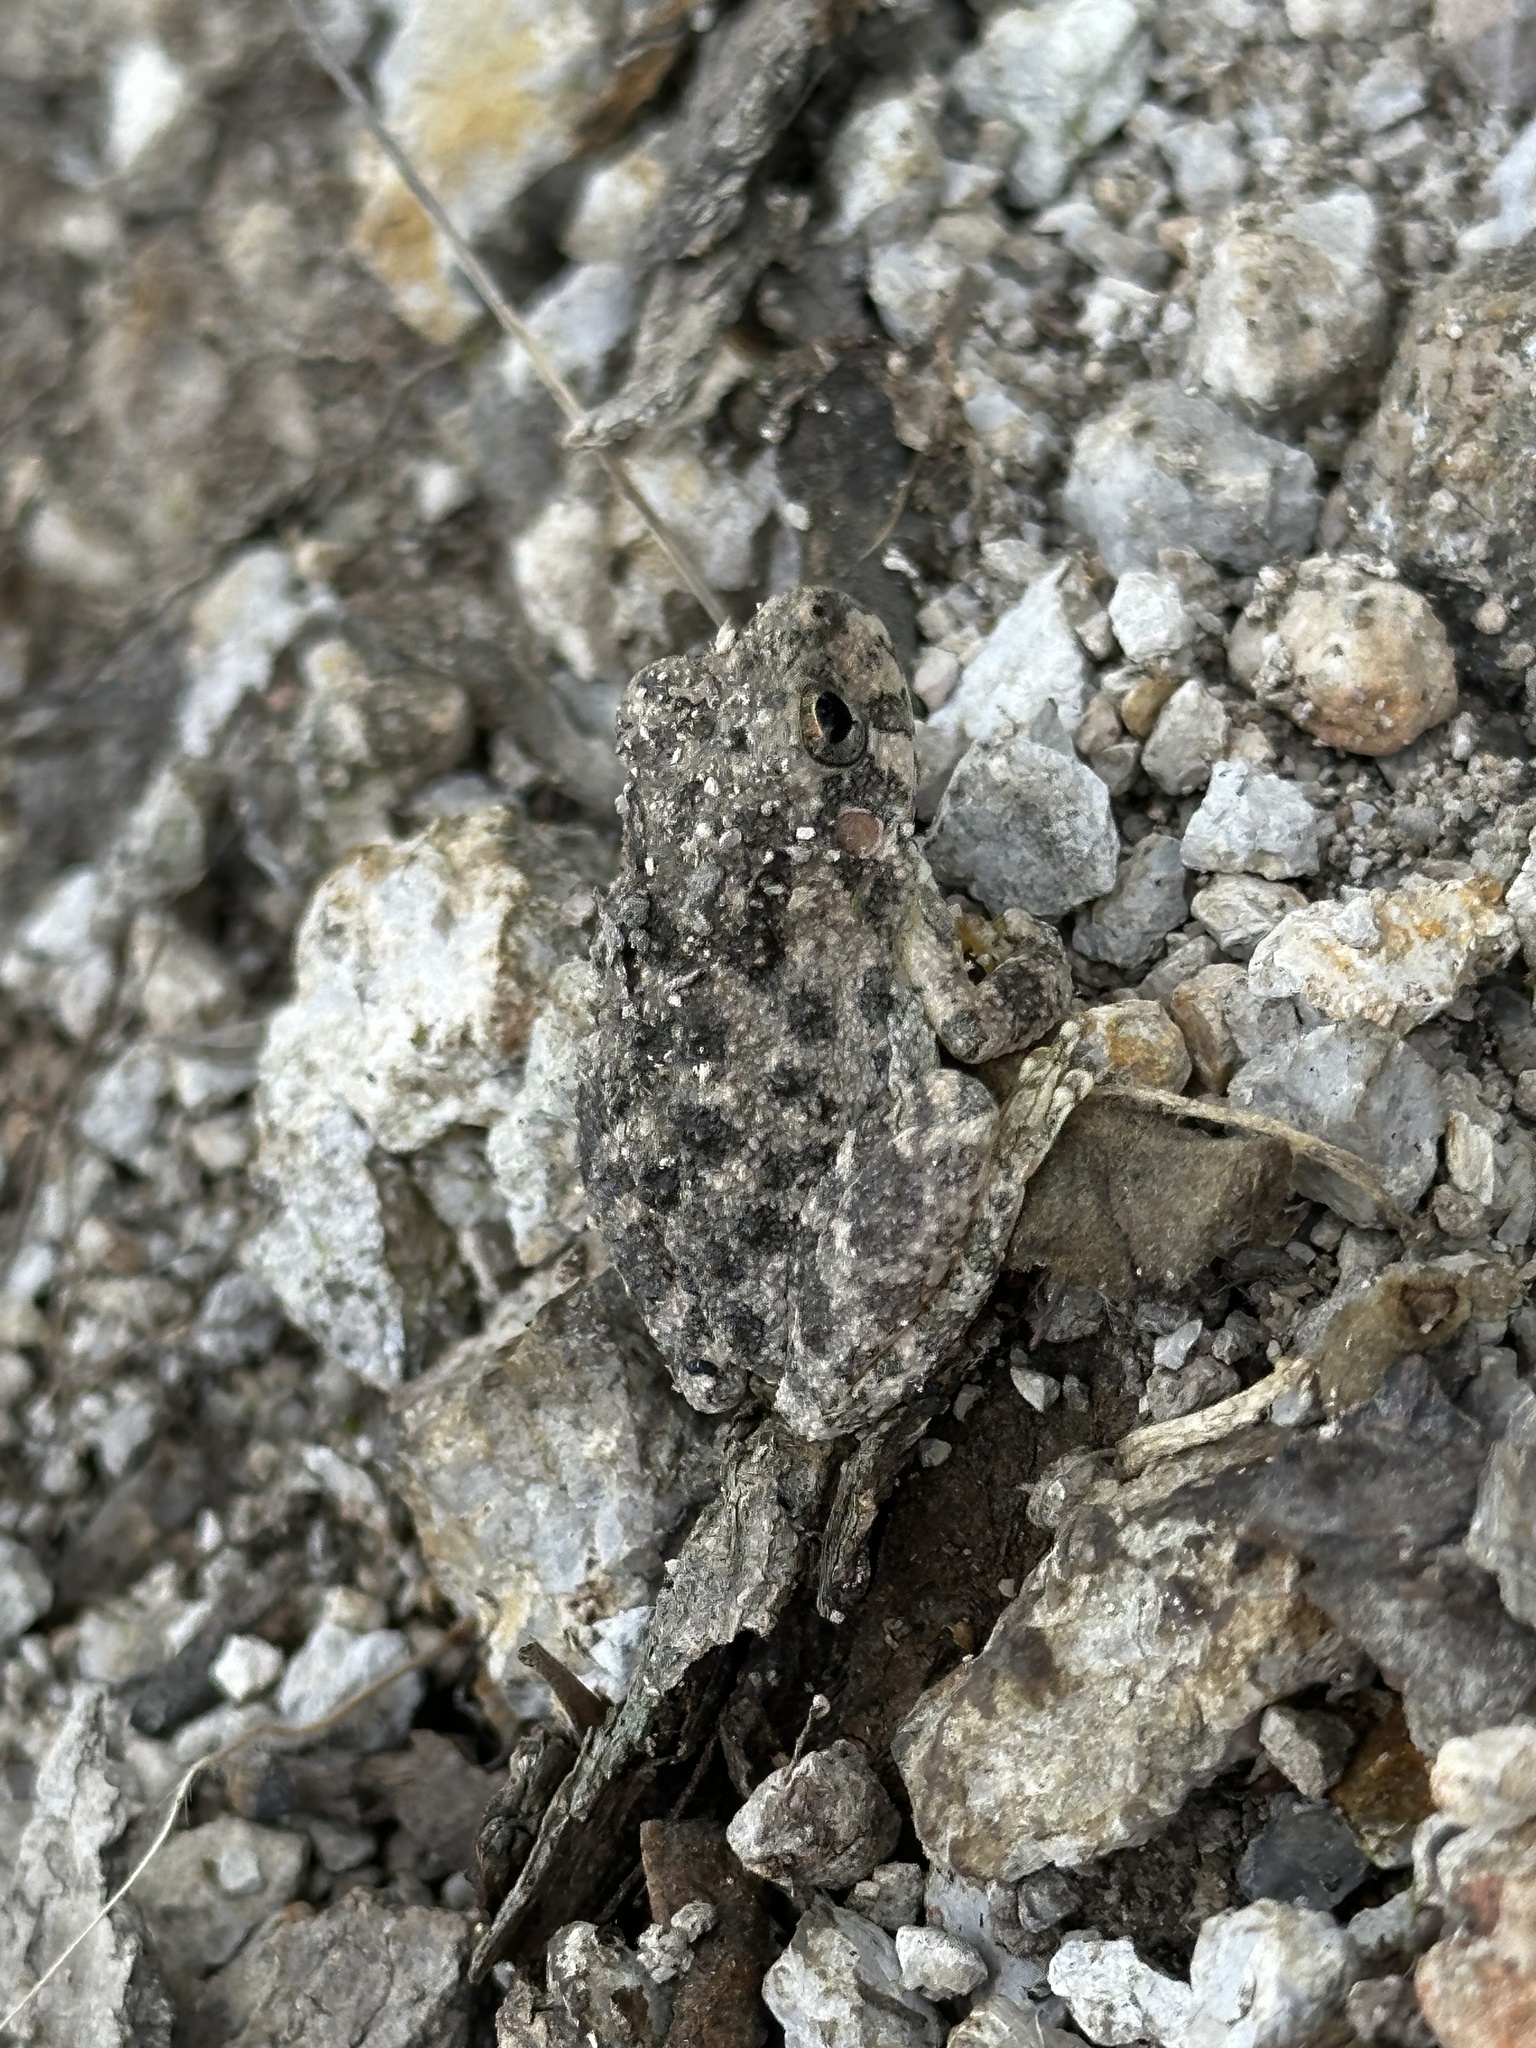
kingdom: Animalia
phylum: Chordata
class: Amphibia
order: Anura
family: Hylidae
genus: Dryophytes
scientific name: Dryophytes arenicolor
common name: Canyon treefrog
